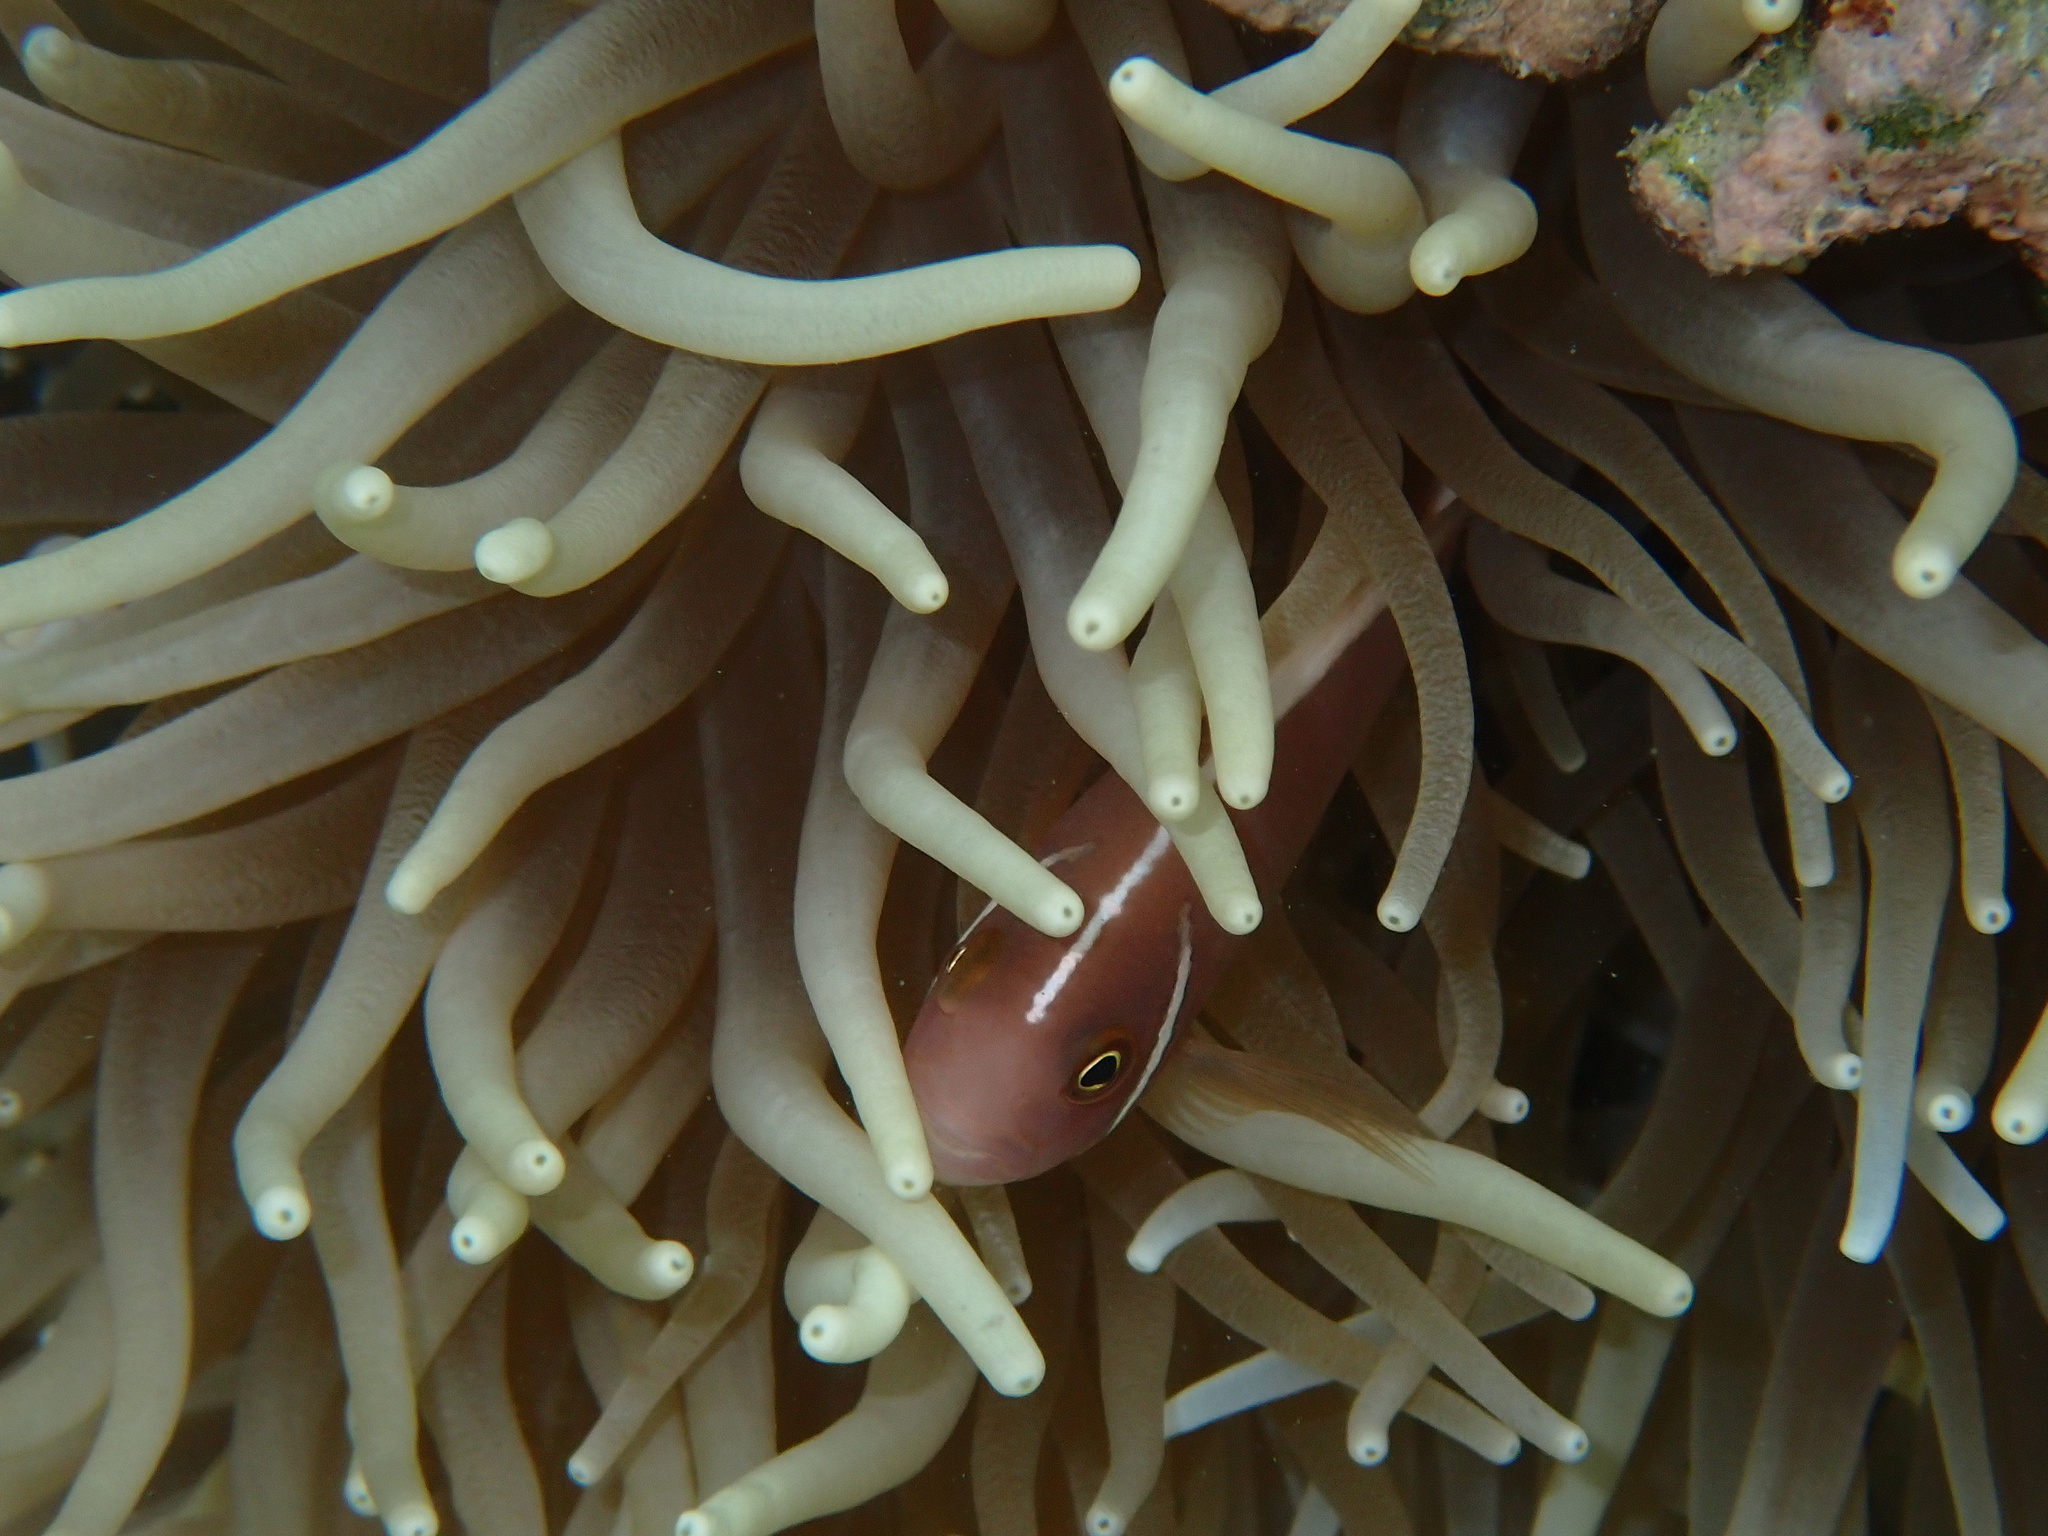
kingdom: Animalia
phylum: Chordata
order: Perciformes
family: Pomacentridae
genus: Amphiprion
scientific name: Amphiprion perideraion
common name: Pink anemonefish
